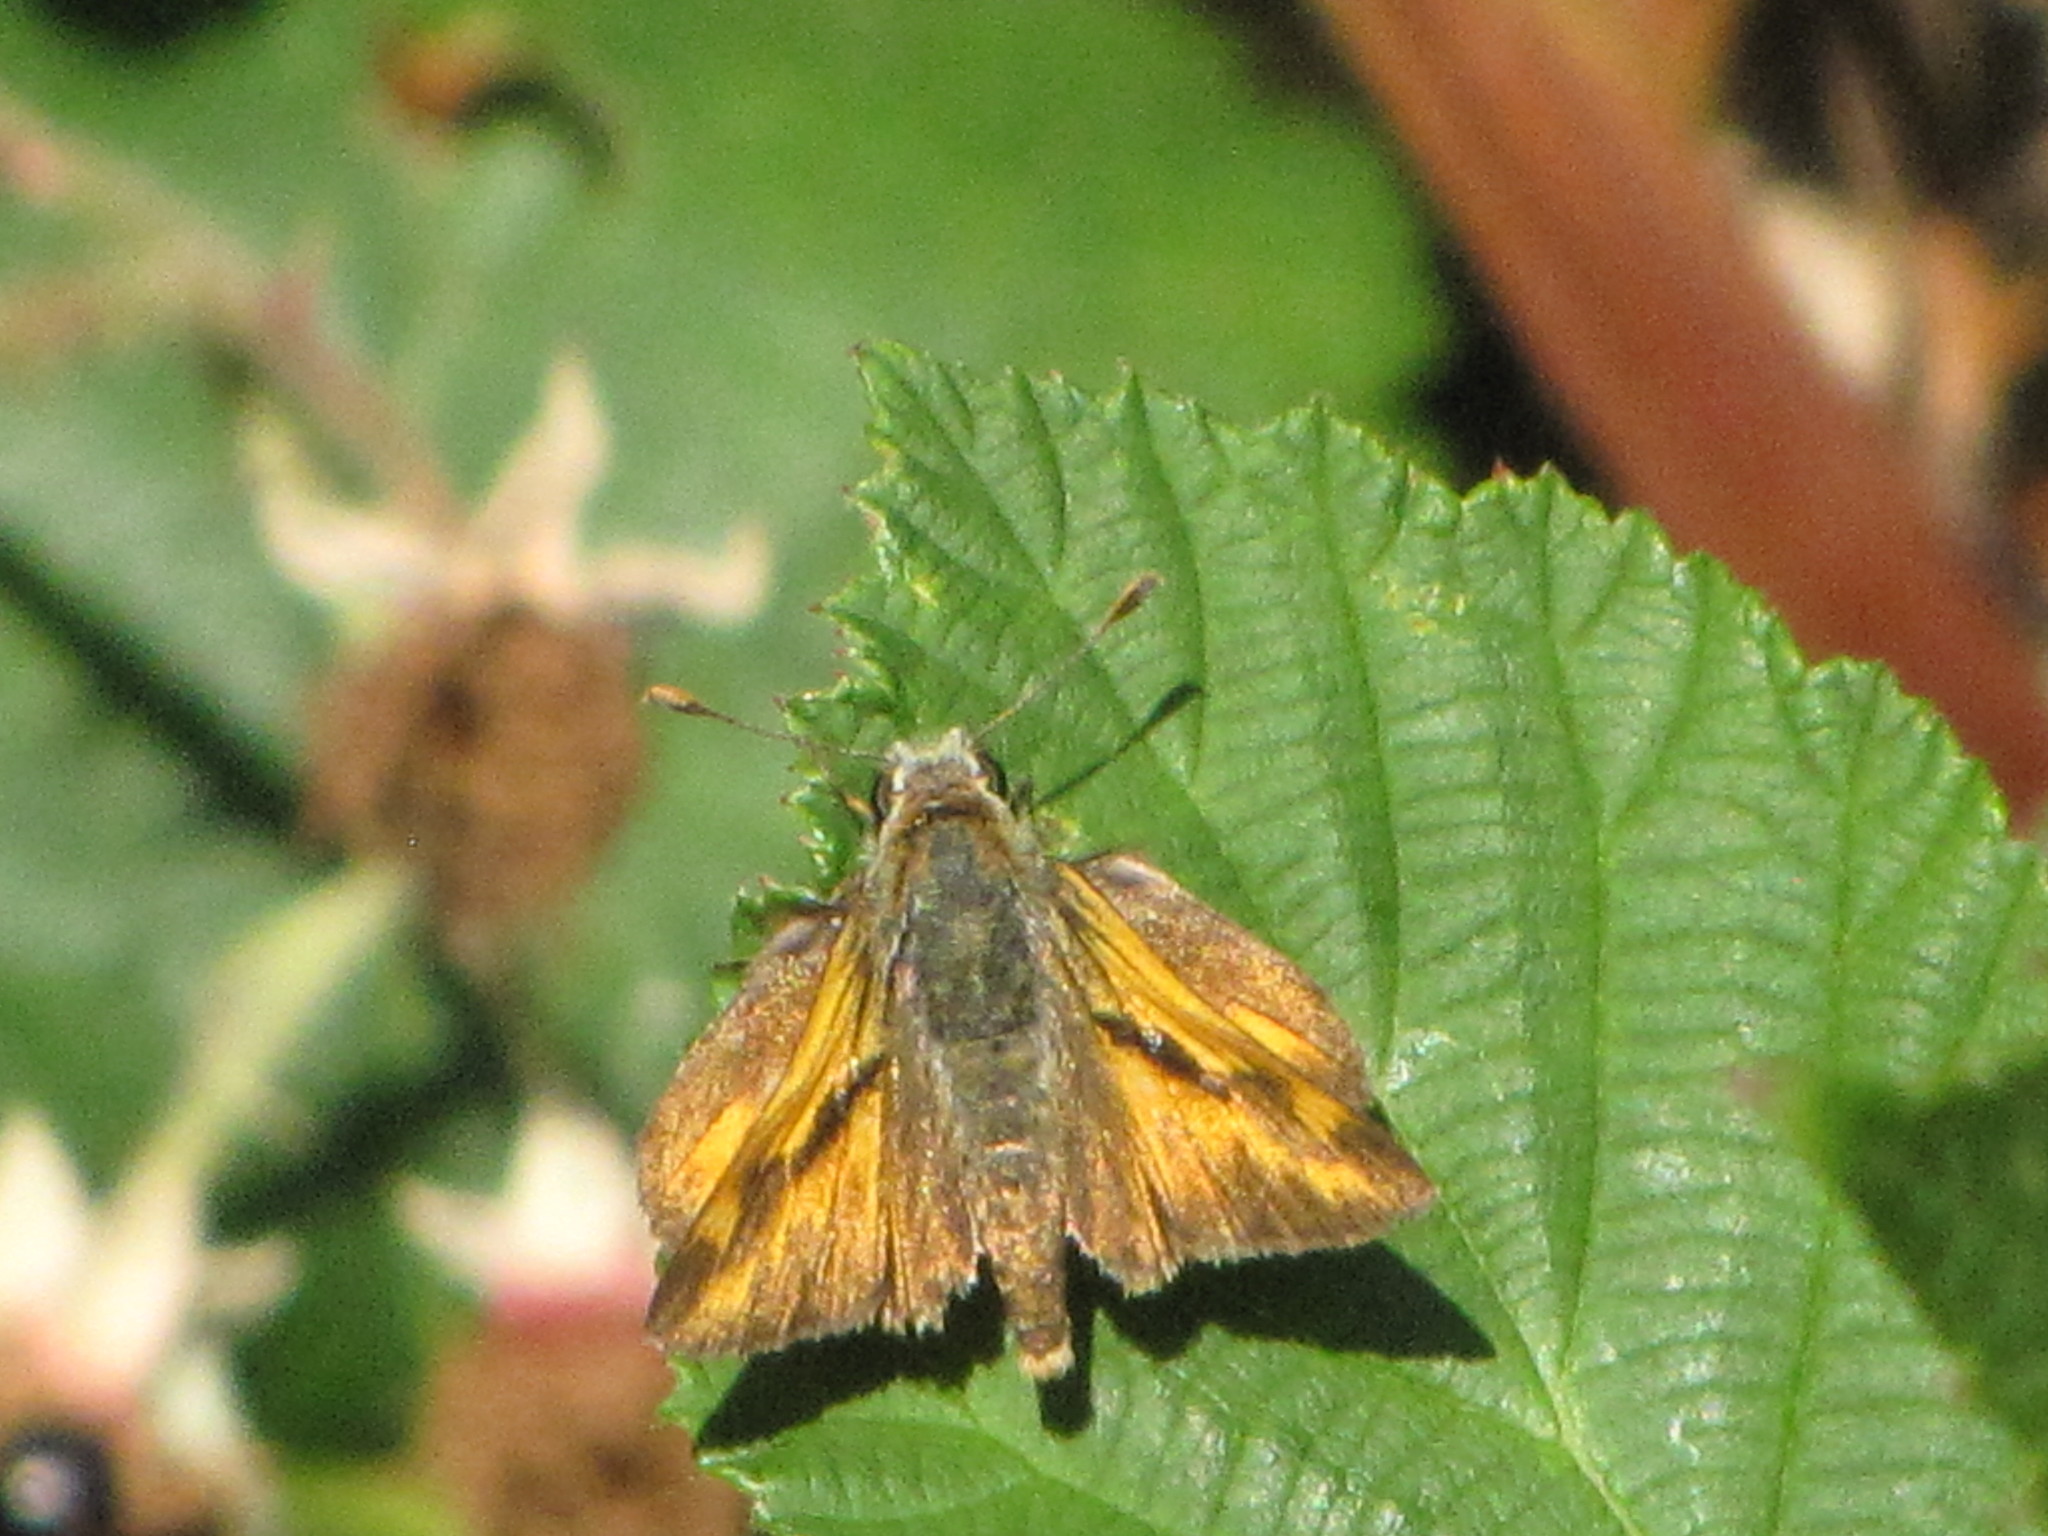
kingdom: Animalia
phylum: Arthropoda
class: Insecta
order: Lepidoptera
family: Hesperiidae
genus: Ochlodes
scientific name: Ochlodes sylvanoides
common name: Woodland skipper
